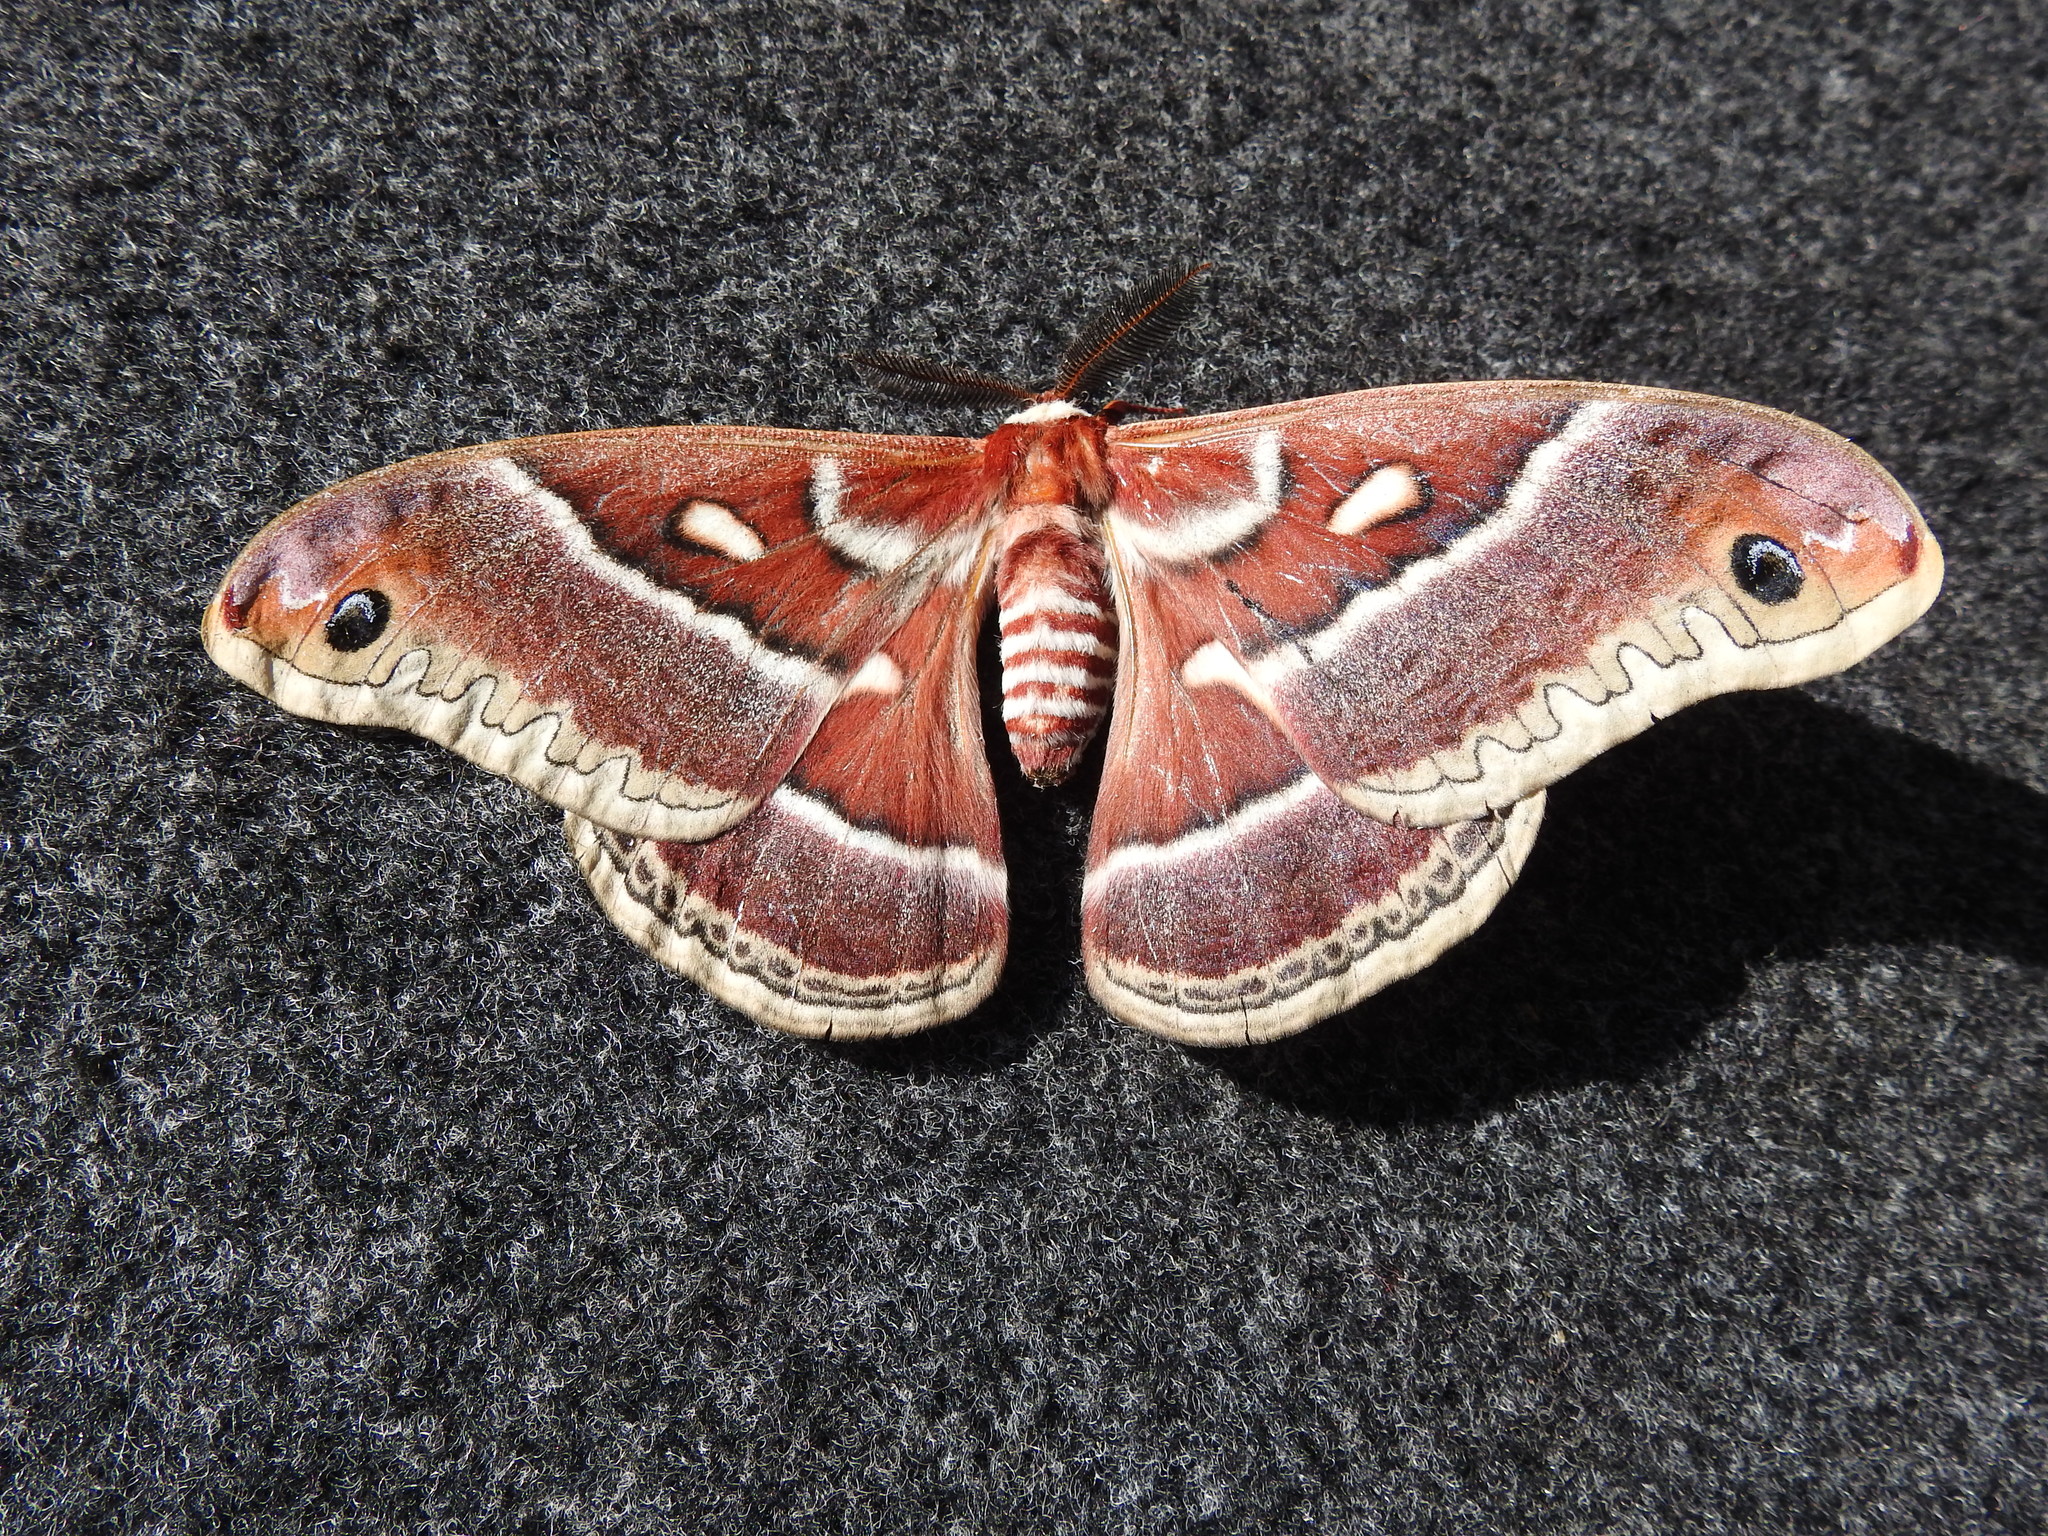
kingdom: Animalia
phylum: Arthropoda
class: Insecta
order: Lepidoptera
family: Saturniidae
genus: Hyalophora
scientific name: Hyalophora gloveri
